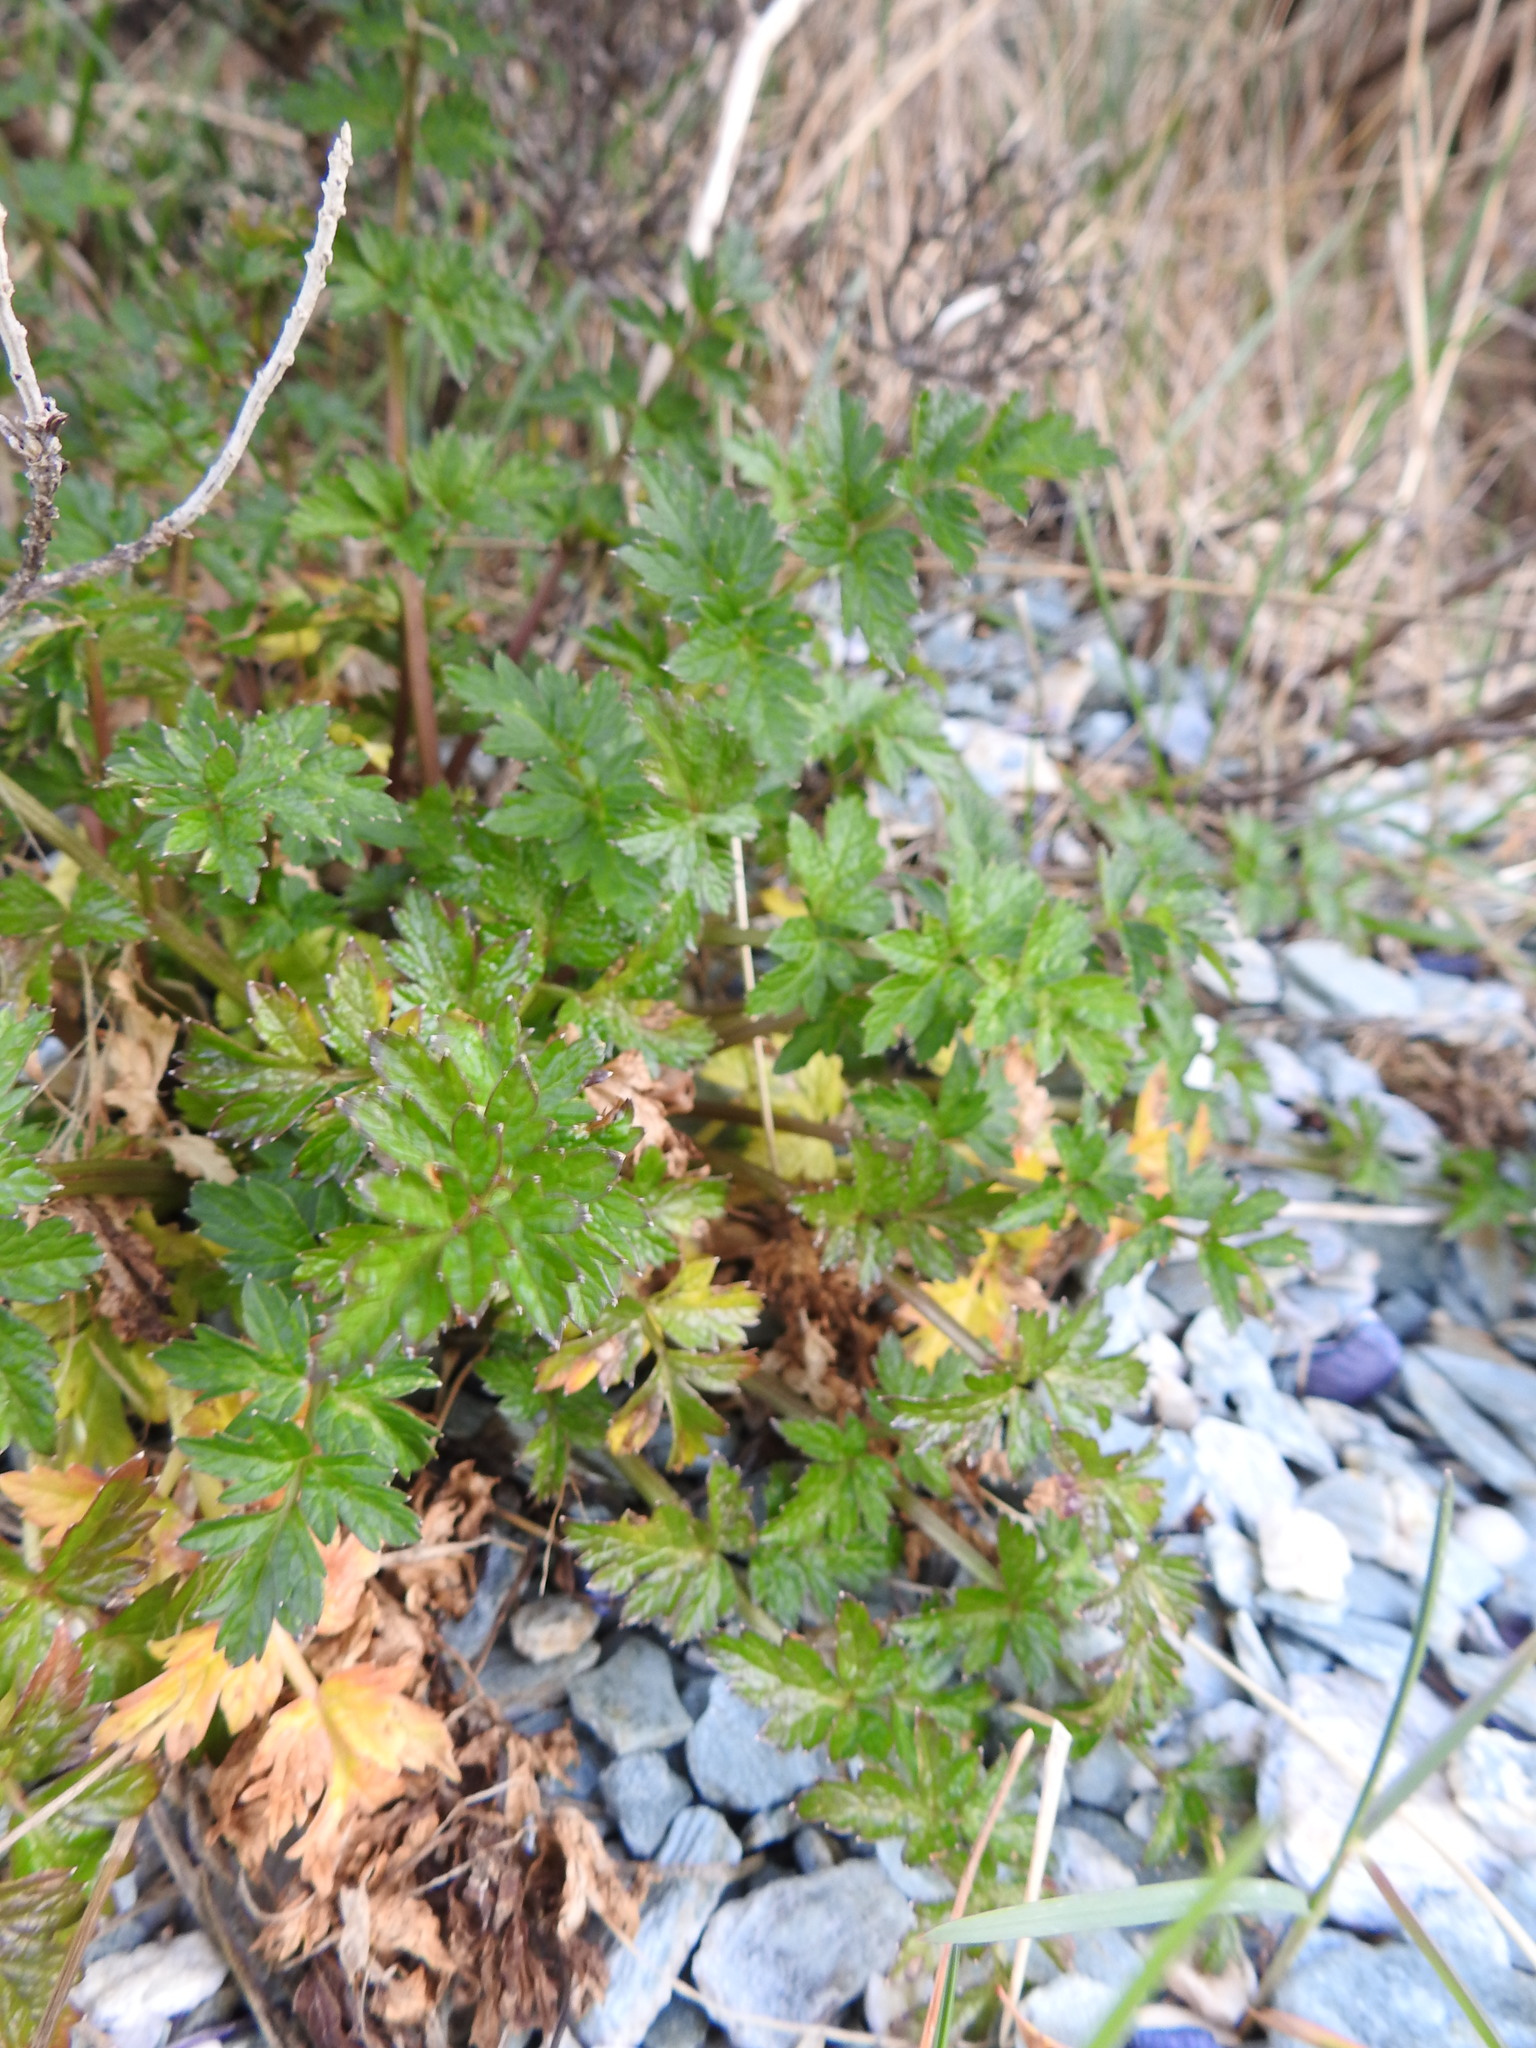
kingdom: Plantae
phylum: Tracheophyta
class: Magnoliopsida
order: Apiales
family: Apiaceae
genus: Apium
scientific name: Apium prostratum
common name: Prostrate marshwort
